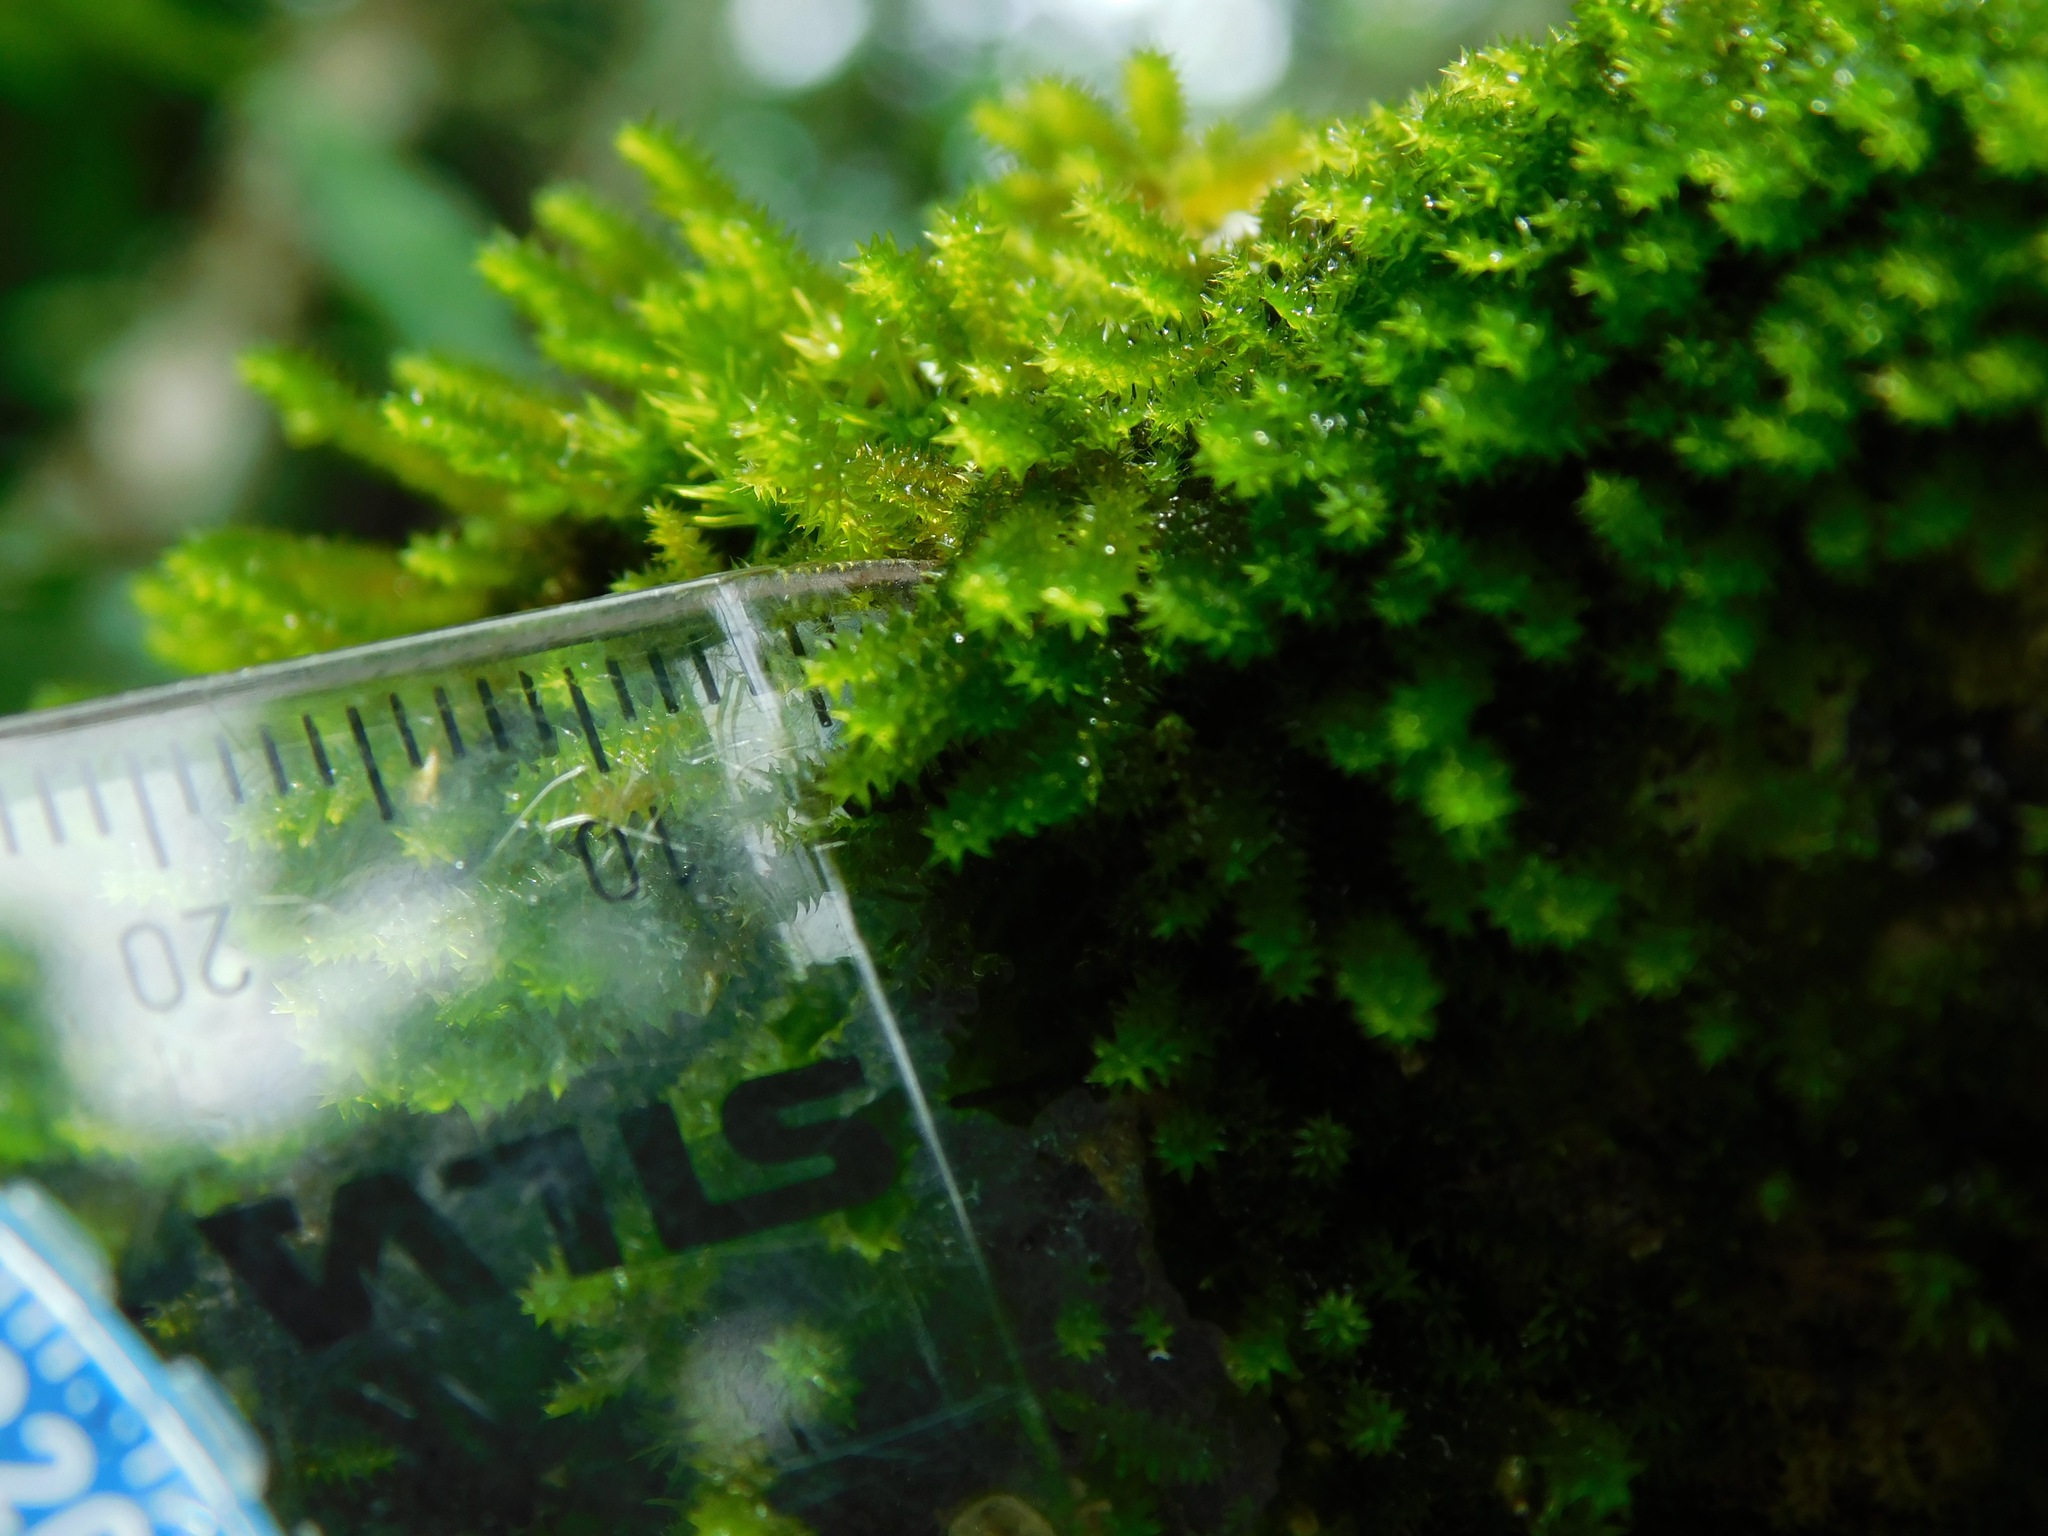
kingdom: Plantae
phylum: Bryophyta
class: Bryopsida
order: Hypnales
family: Leucodontaceae
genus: Leucodon
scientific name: Leucodon julaceus
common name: Smooth hook moss
